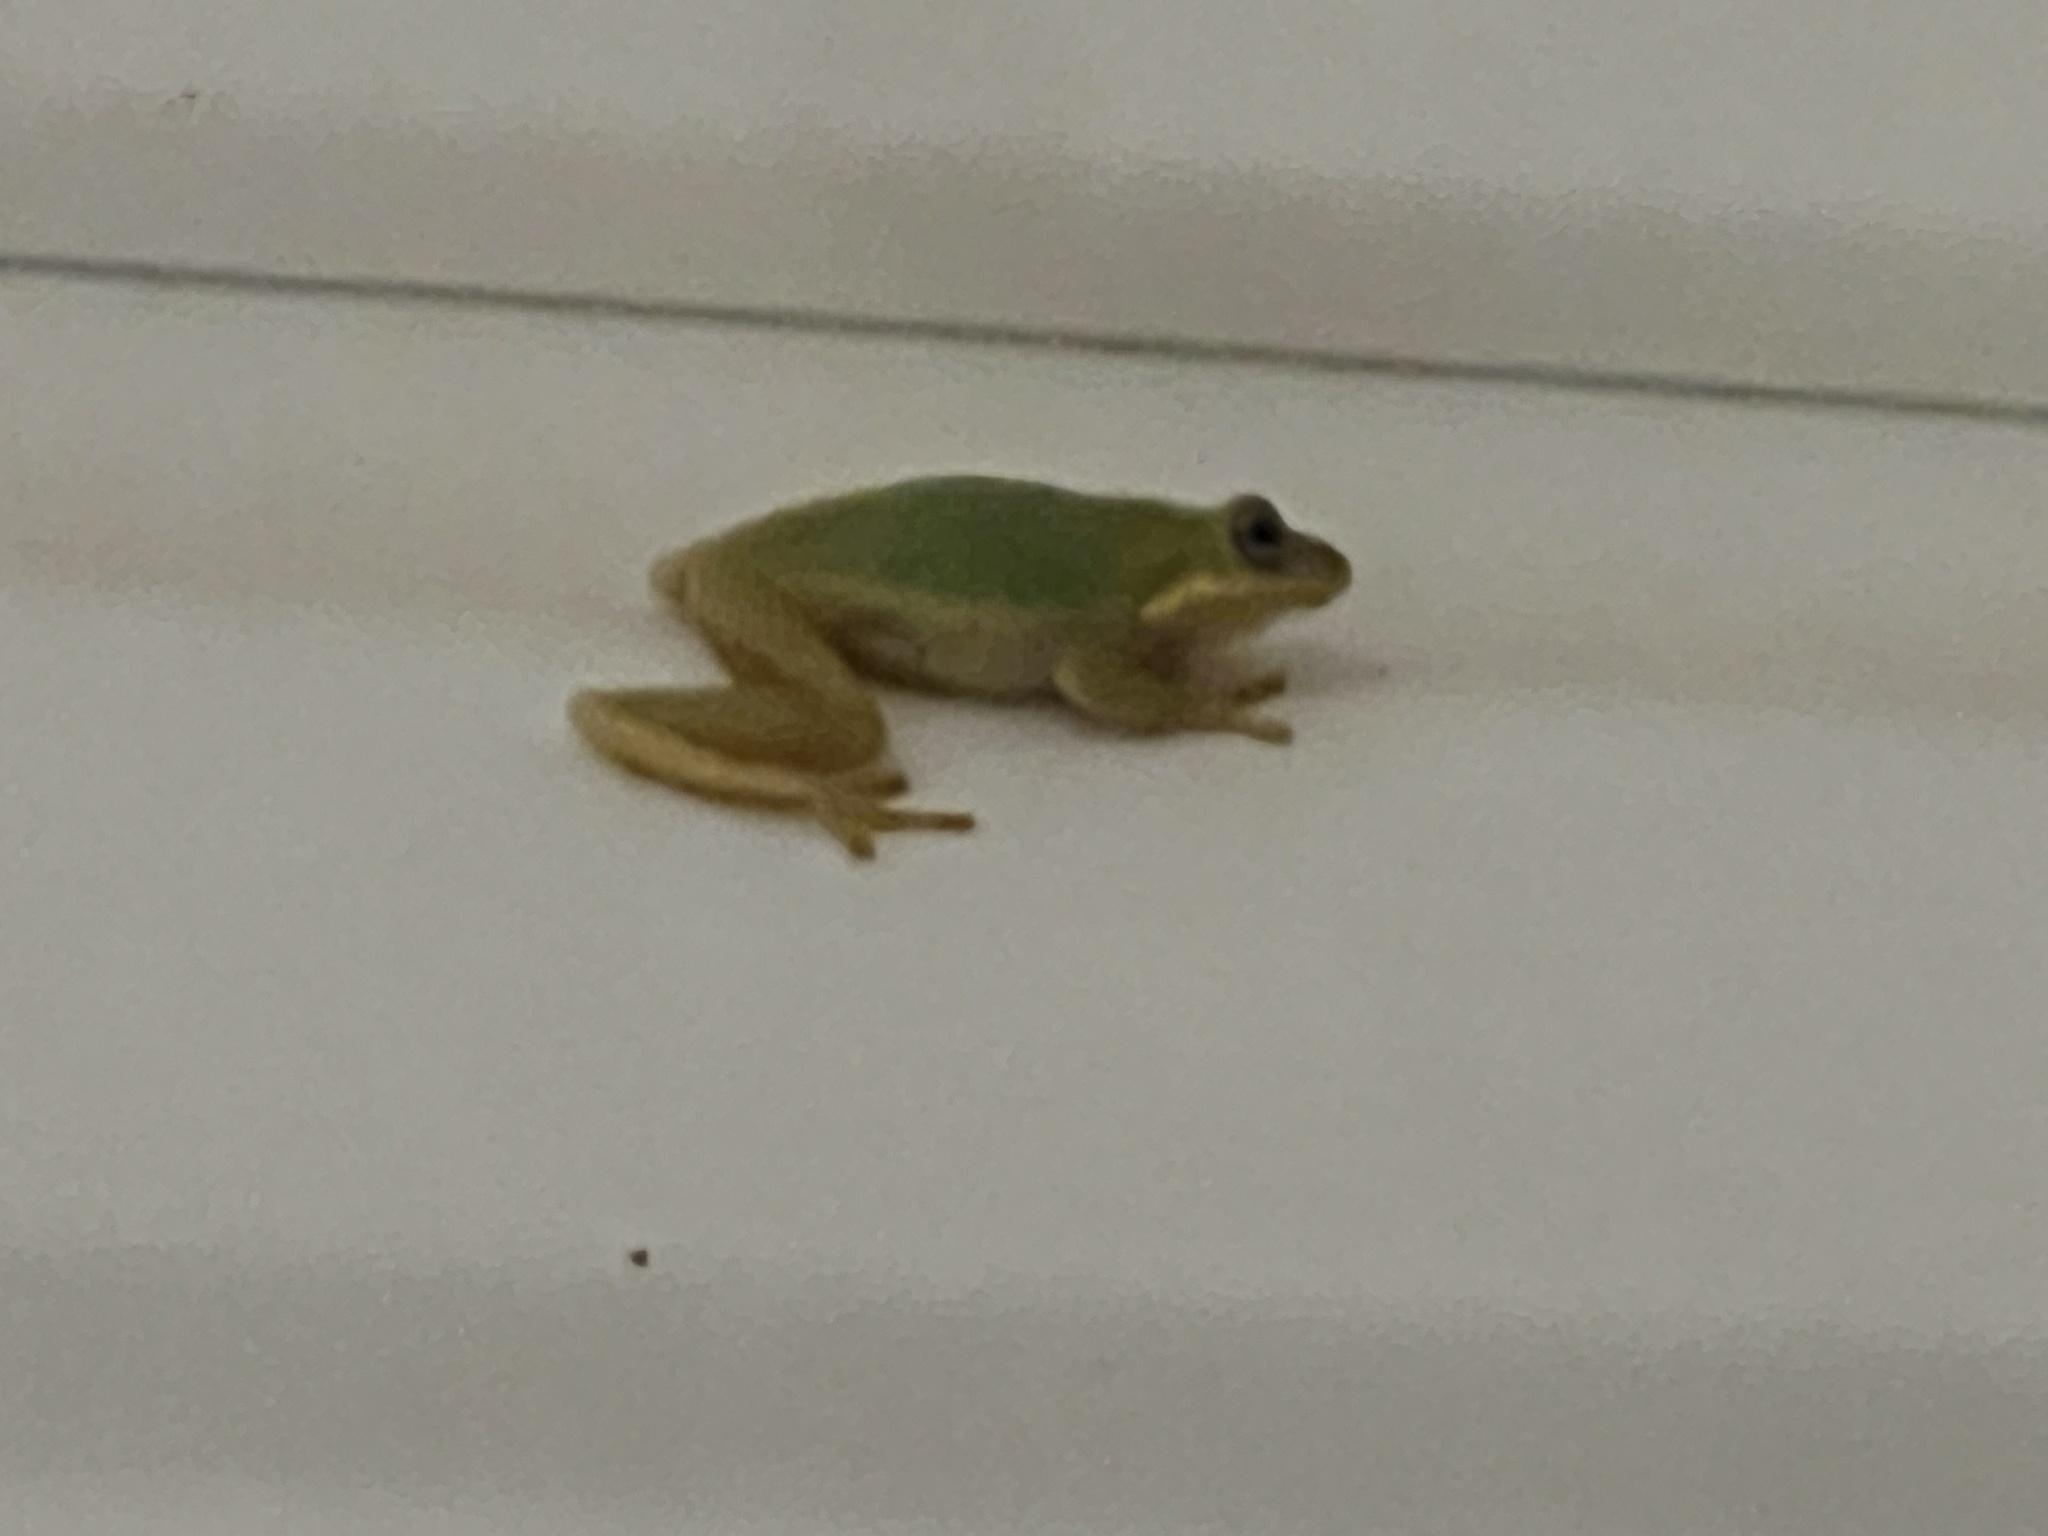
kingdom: Animalia
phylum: Chordata
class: Amphibia
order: Anura
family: Hylidae
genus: Dryophytes
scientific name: Dryophytes squirellus
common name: Squirrel treefrog
